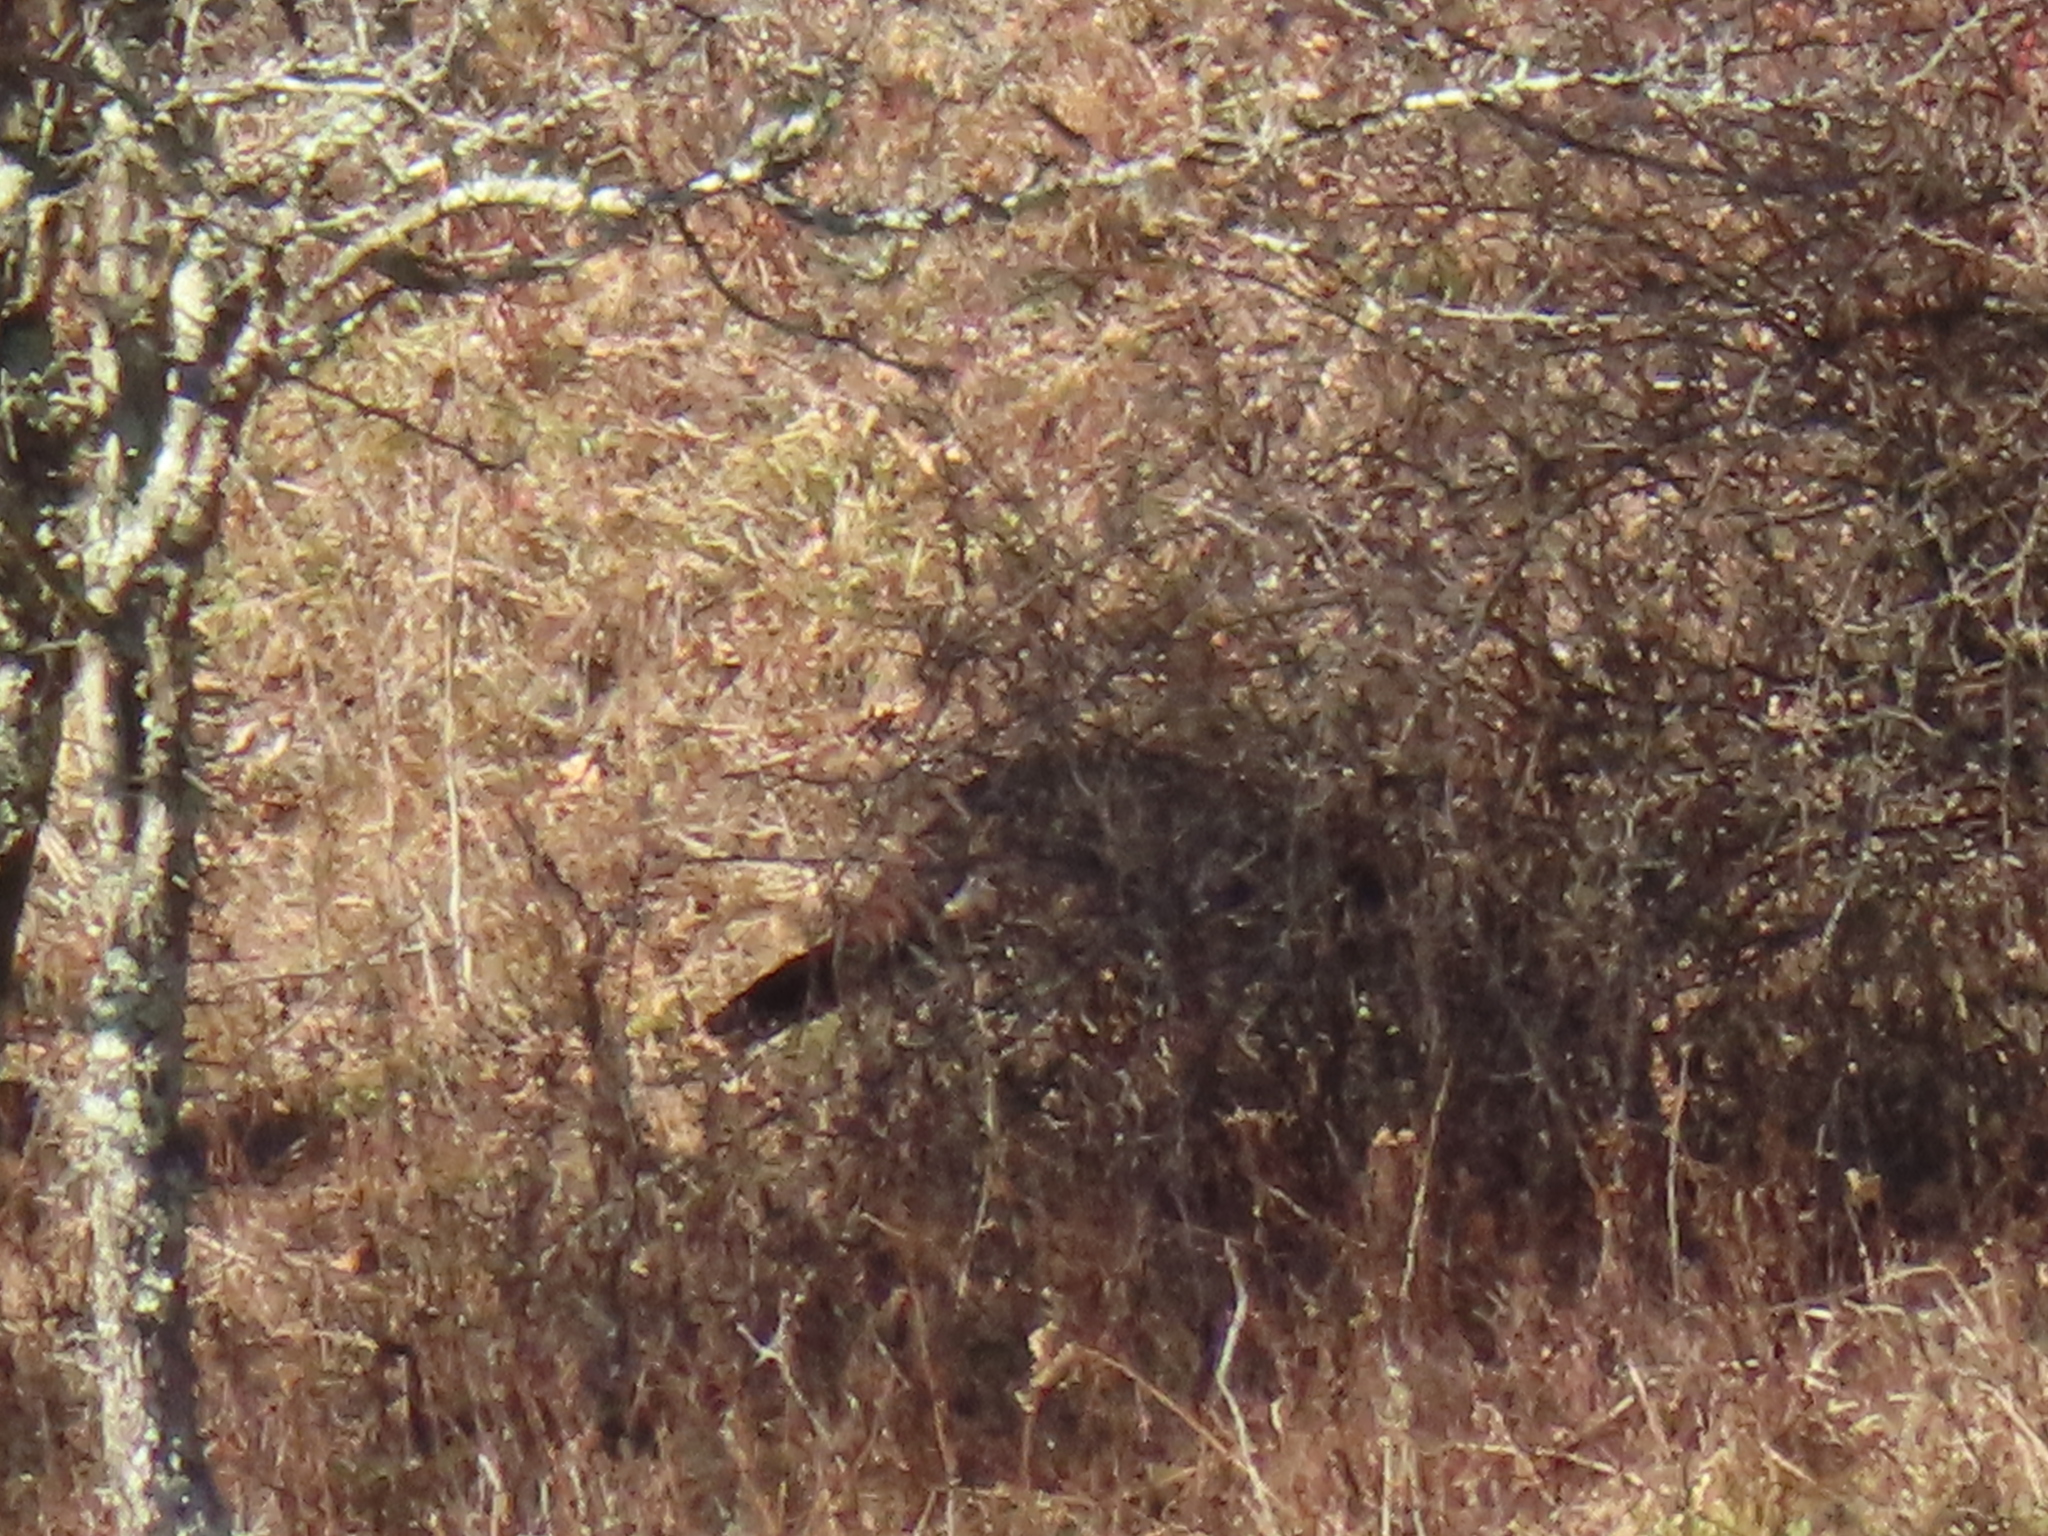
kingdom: Animalia
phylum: Chordata
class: Aves
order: Galliformes
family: Phasianidae
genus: Meleagris
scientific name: Meleagris gallopavo
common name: Wild turkey
